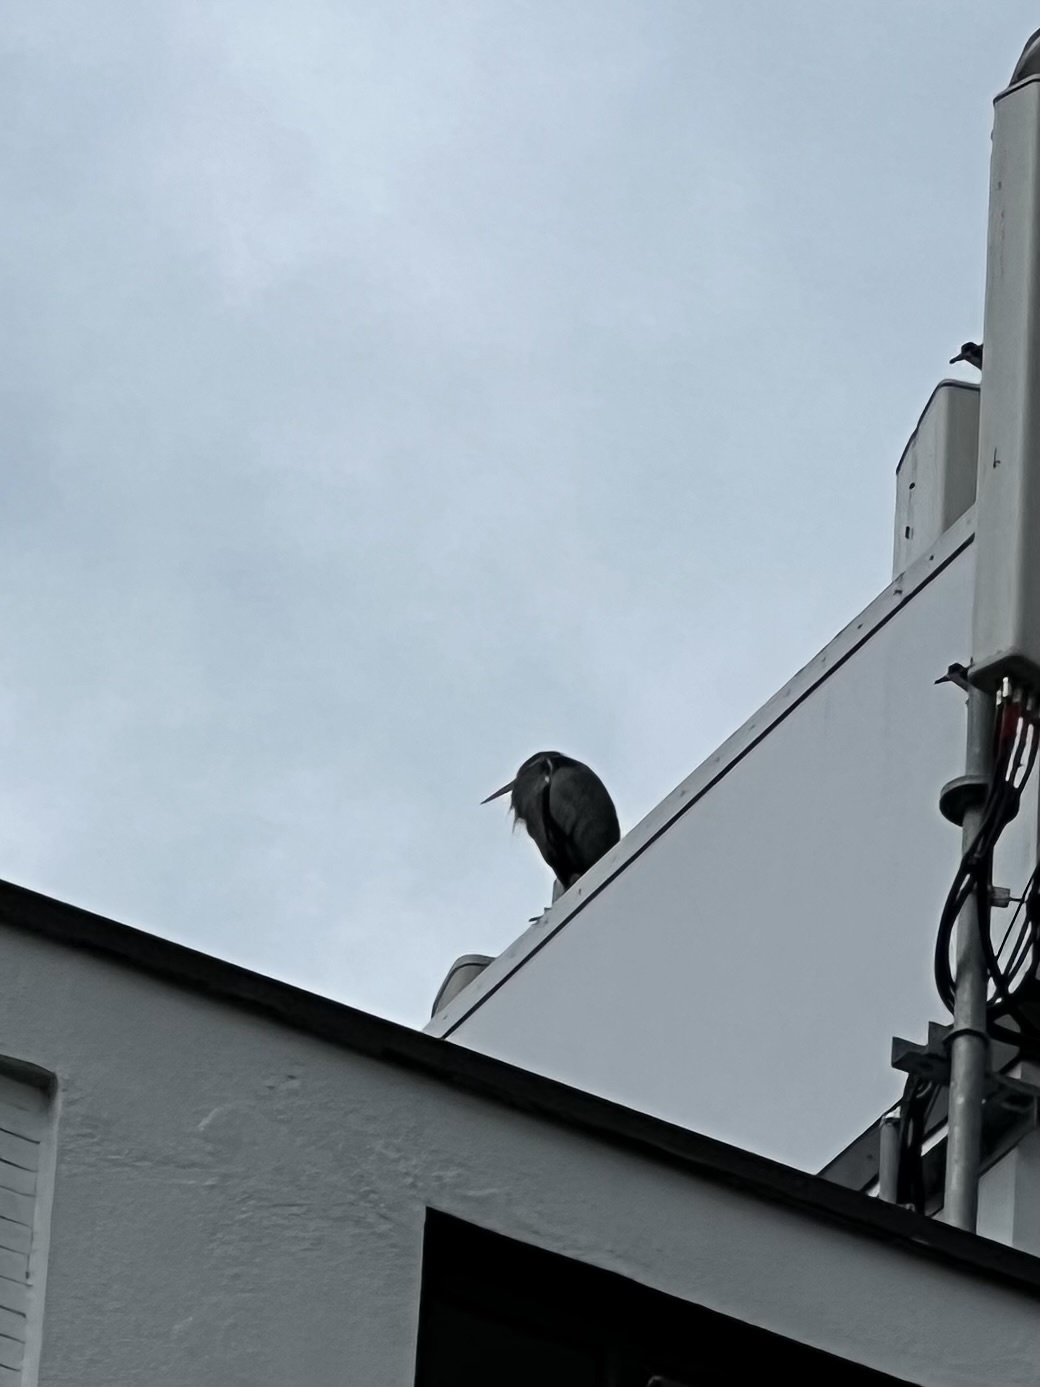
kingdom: Animalia
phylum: Chordata
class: Aves
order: Pelecaniformes
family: Ardeidae
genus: Ardea
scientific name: Ardea herodias
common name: Great blue heron
